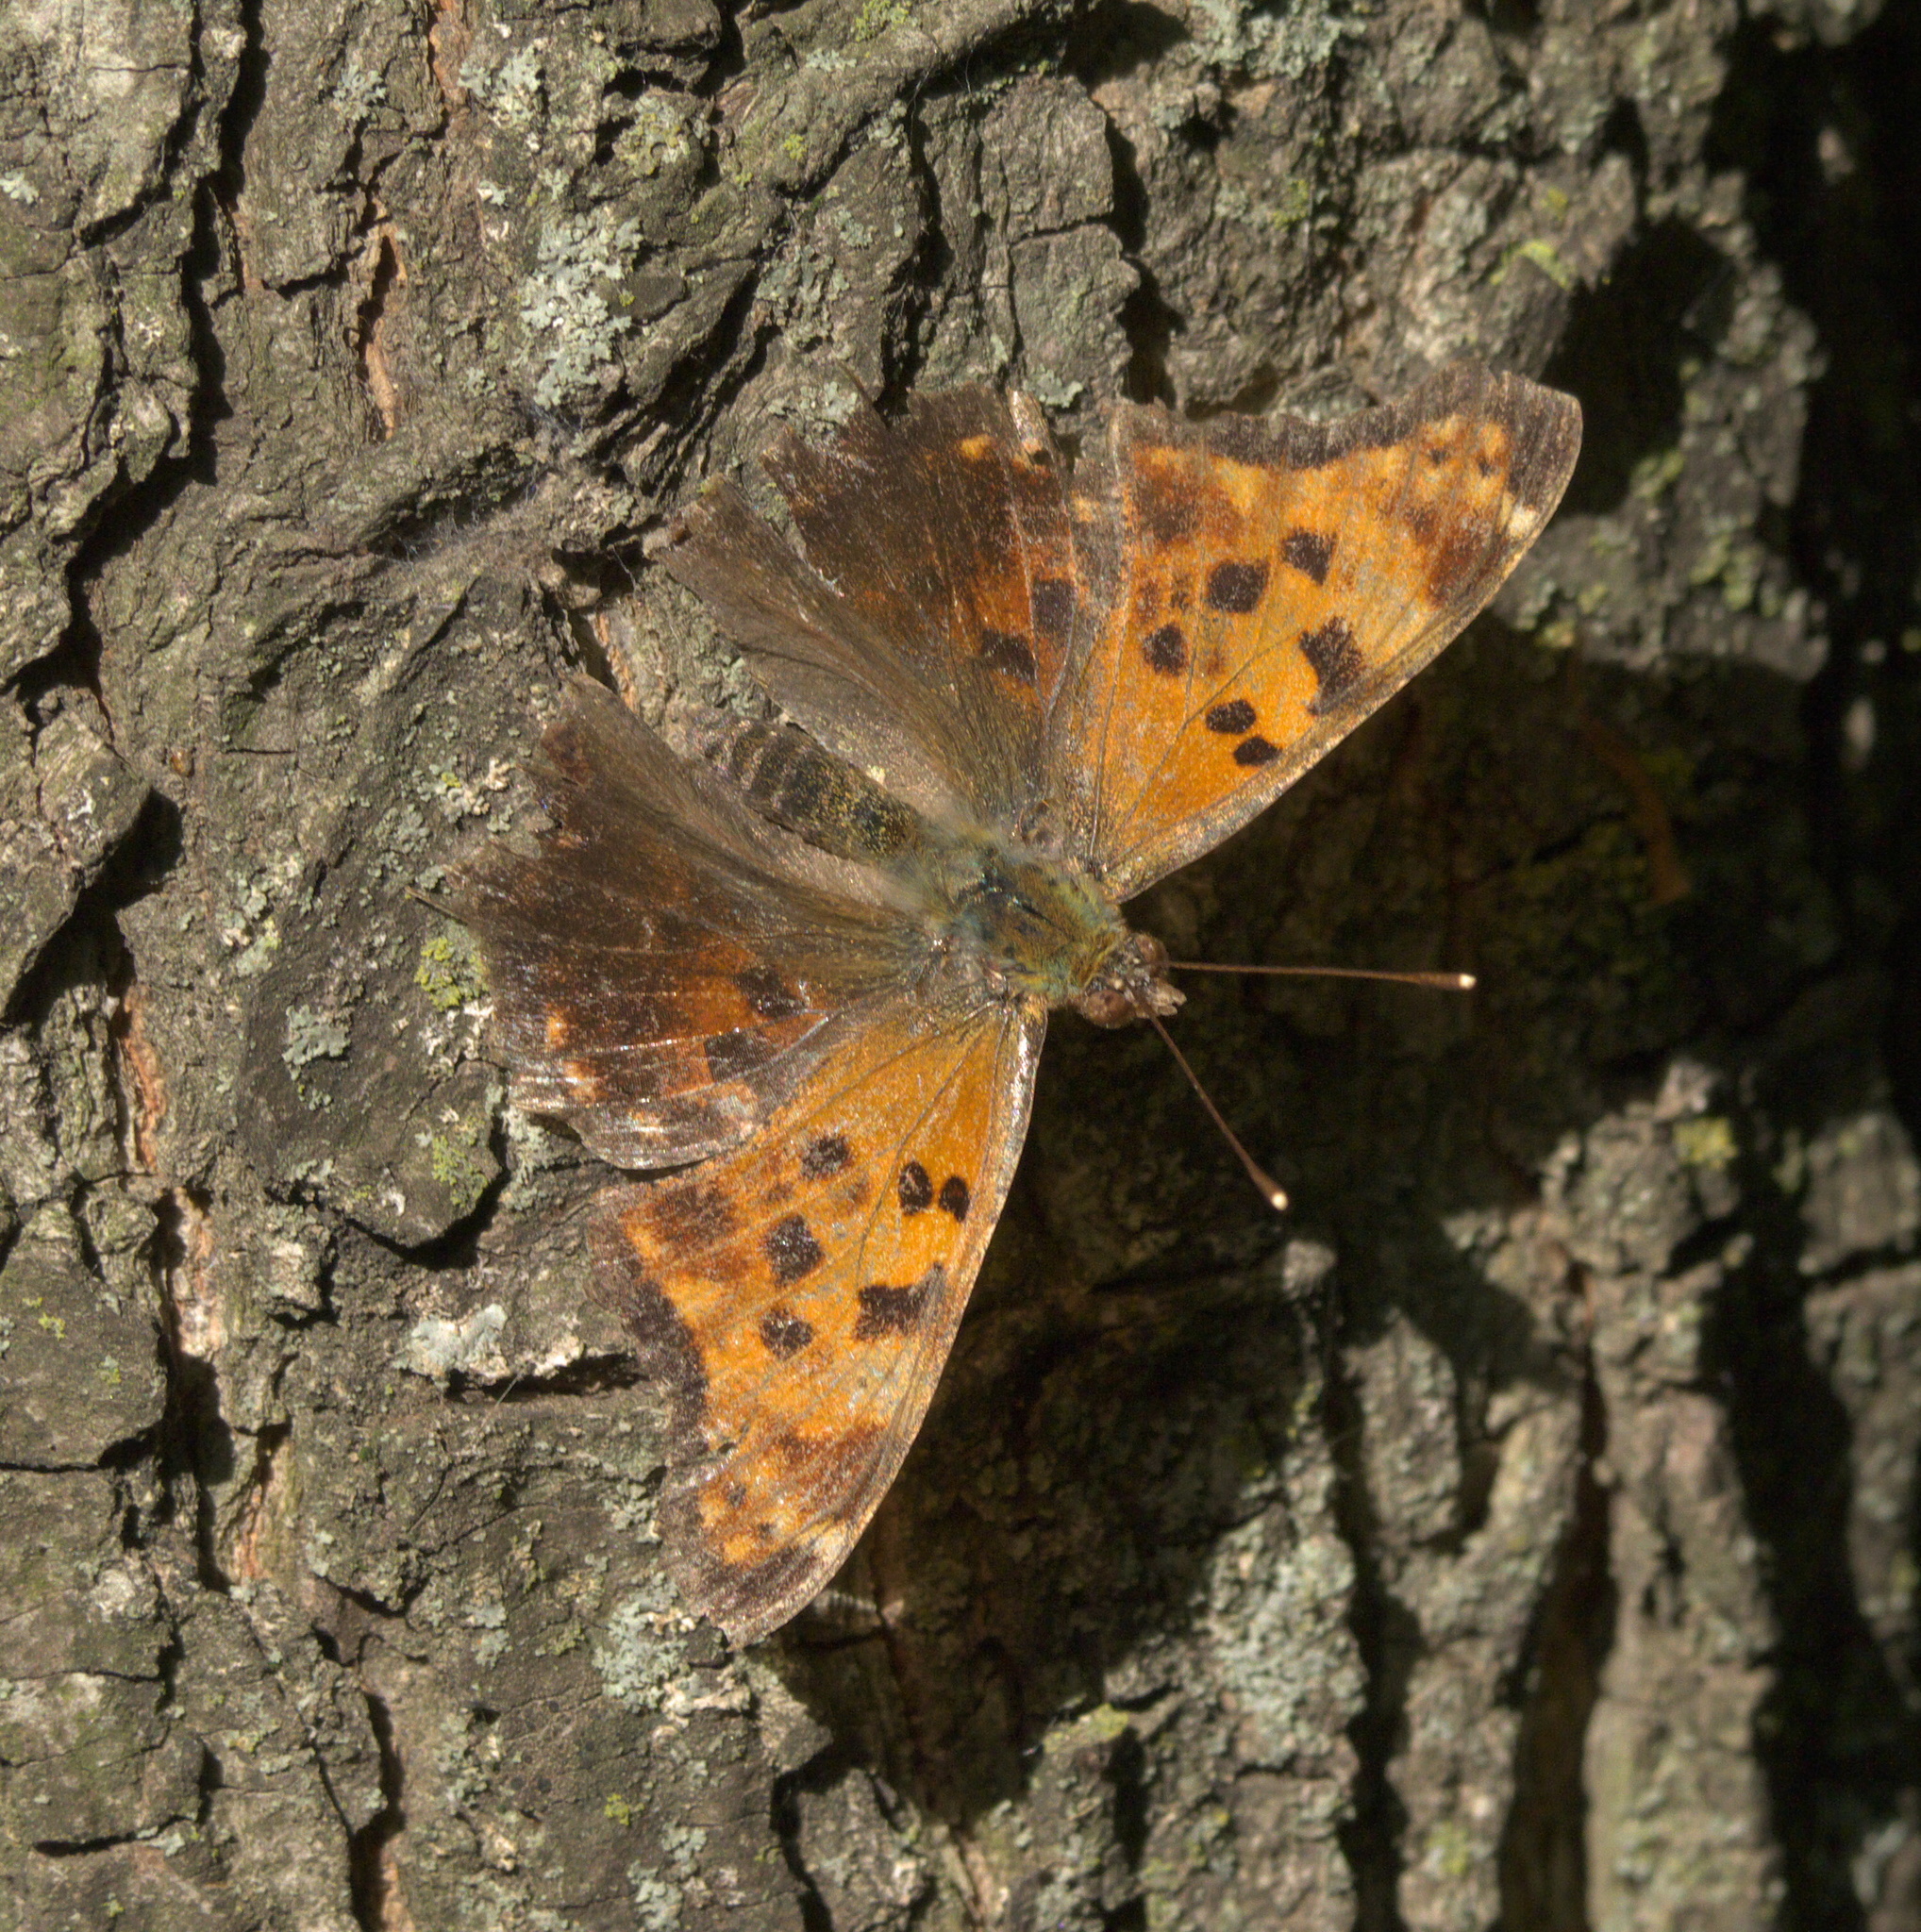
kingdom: Animalia
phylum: Arthropoda
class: Insecta
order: Lepidoptera
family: Nymphalidae
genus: Polygonia
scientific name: Polygonia comma
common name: Eastern comma
